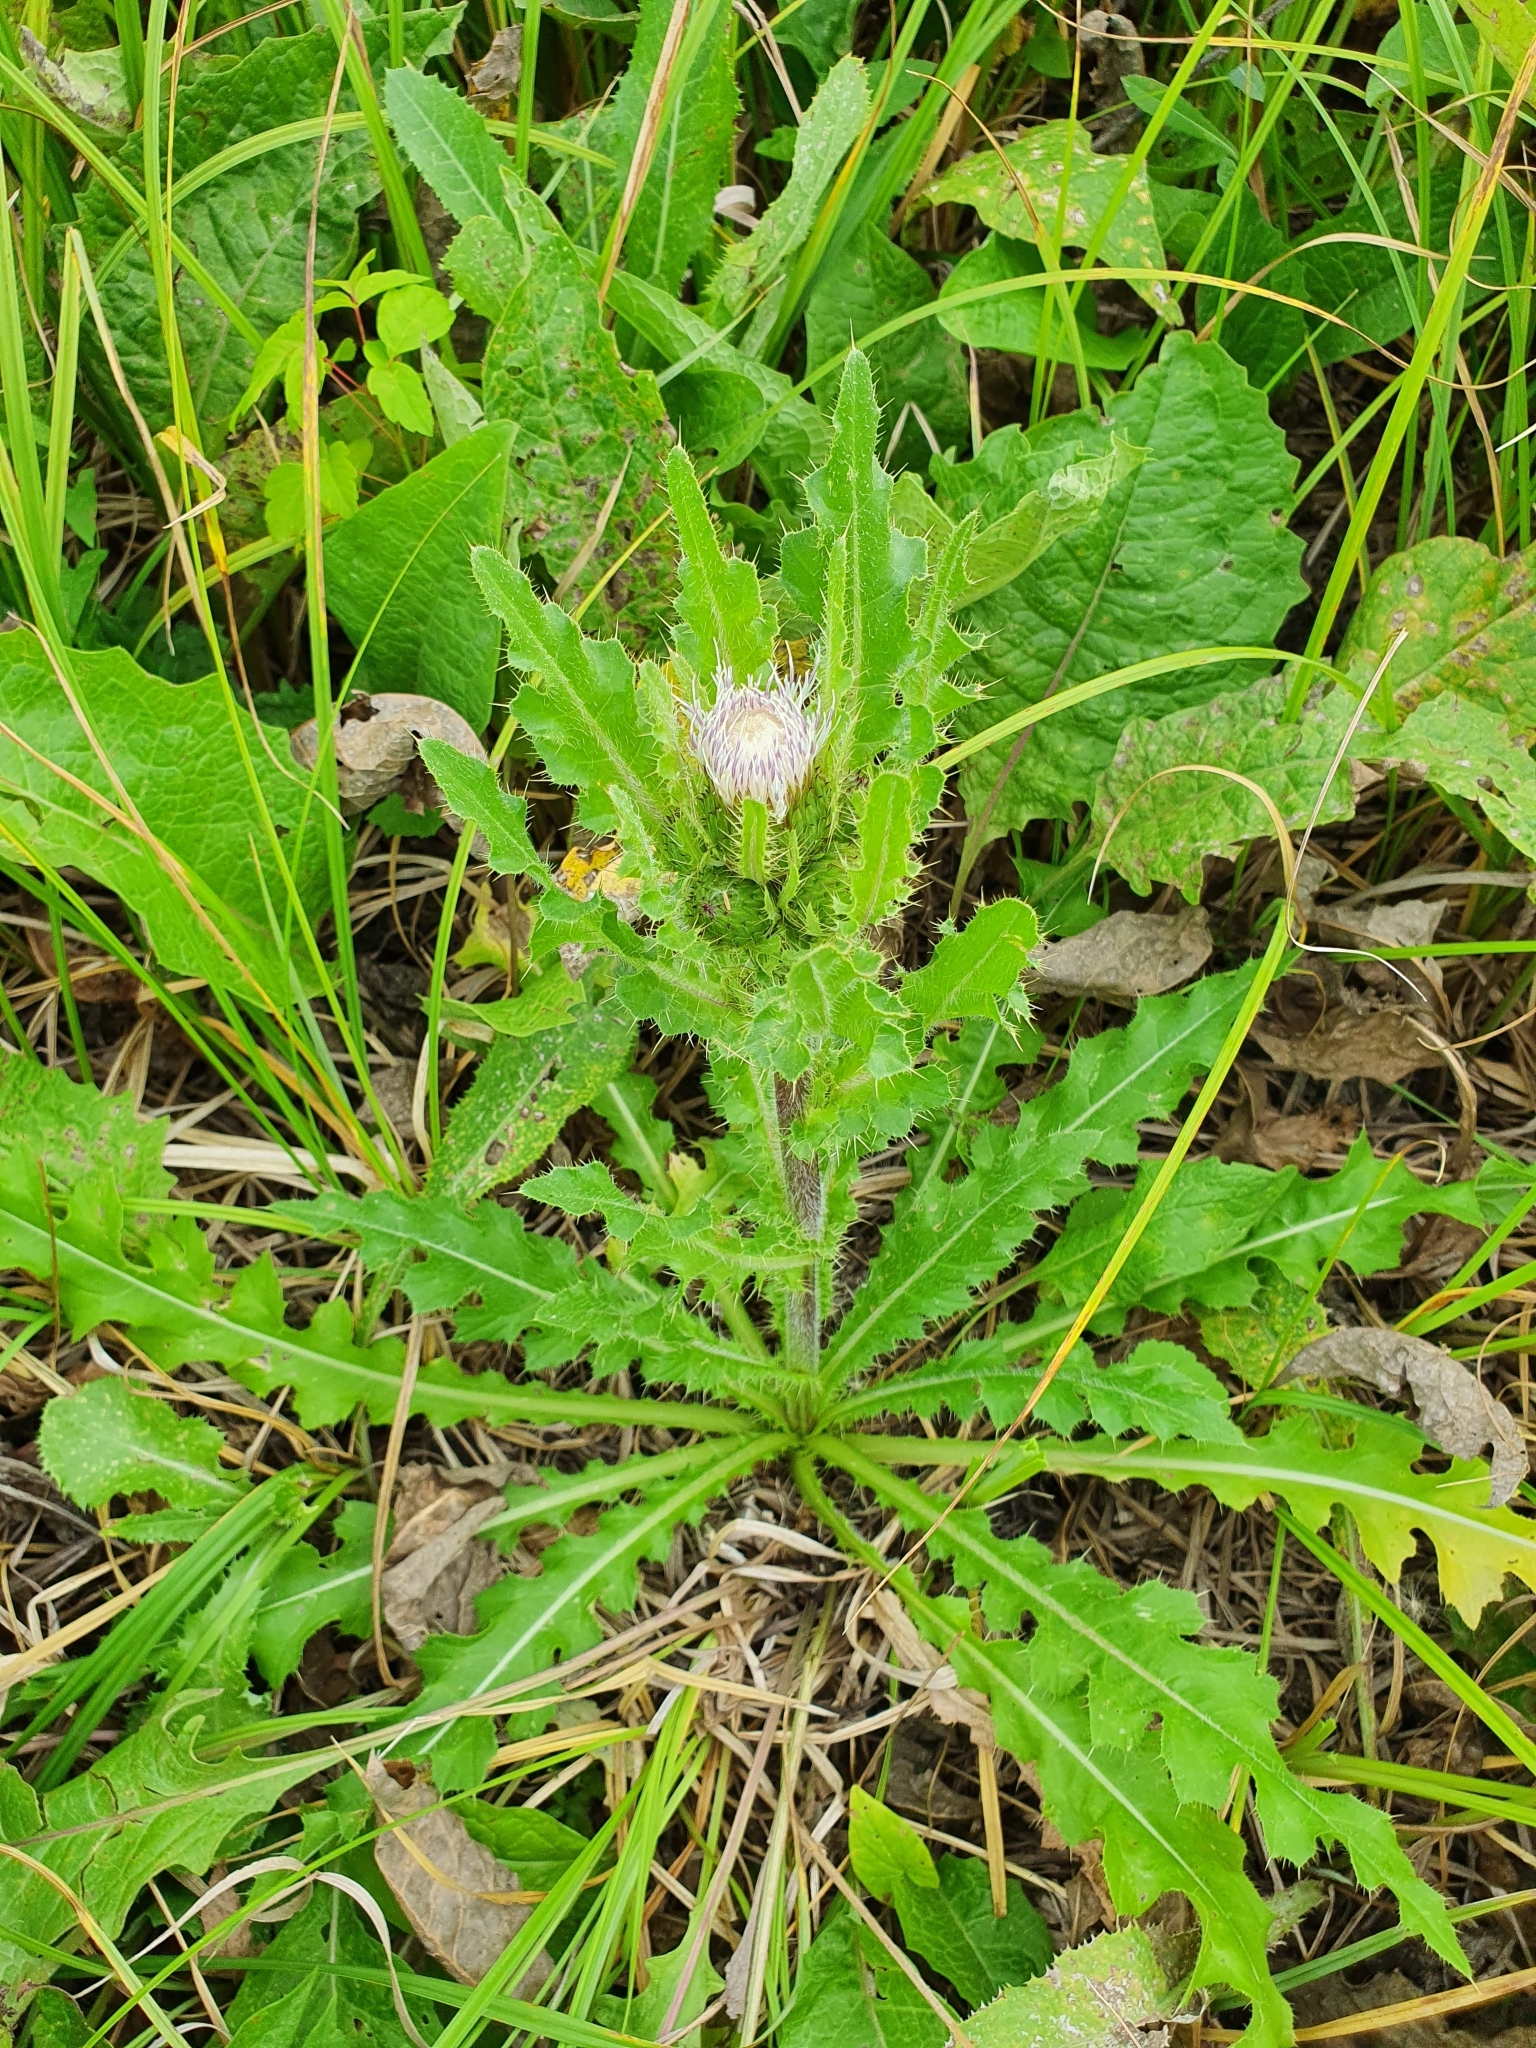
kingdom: Plantae
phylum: Tracheophyta
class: Magnoliopsida
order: Asterales
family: Asteraceae
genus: Cirsium
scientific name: Cirsium esculentum
